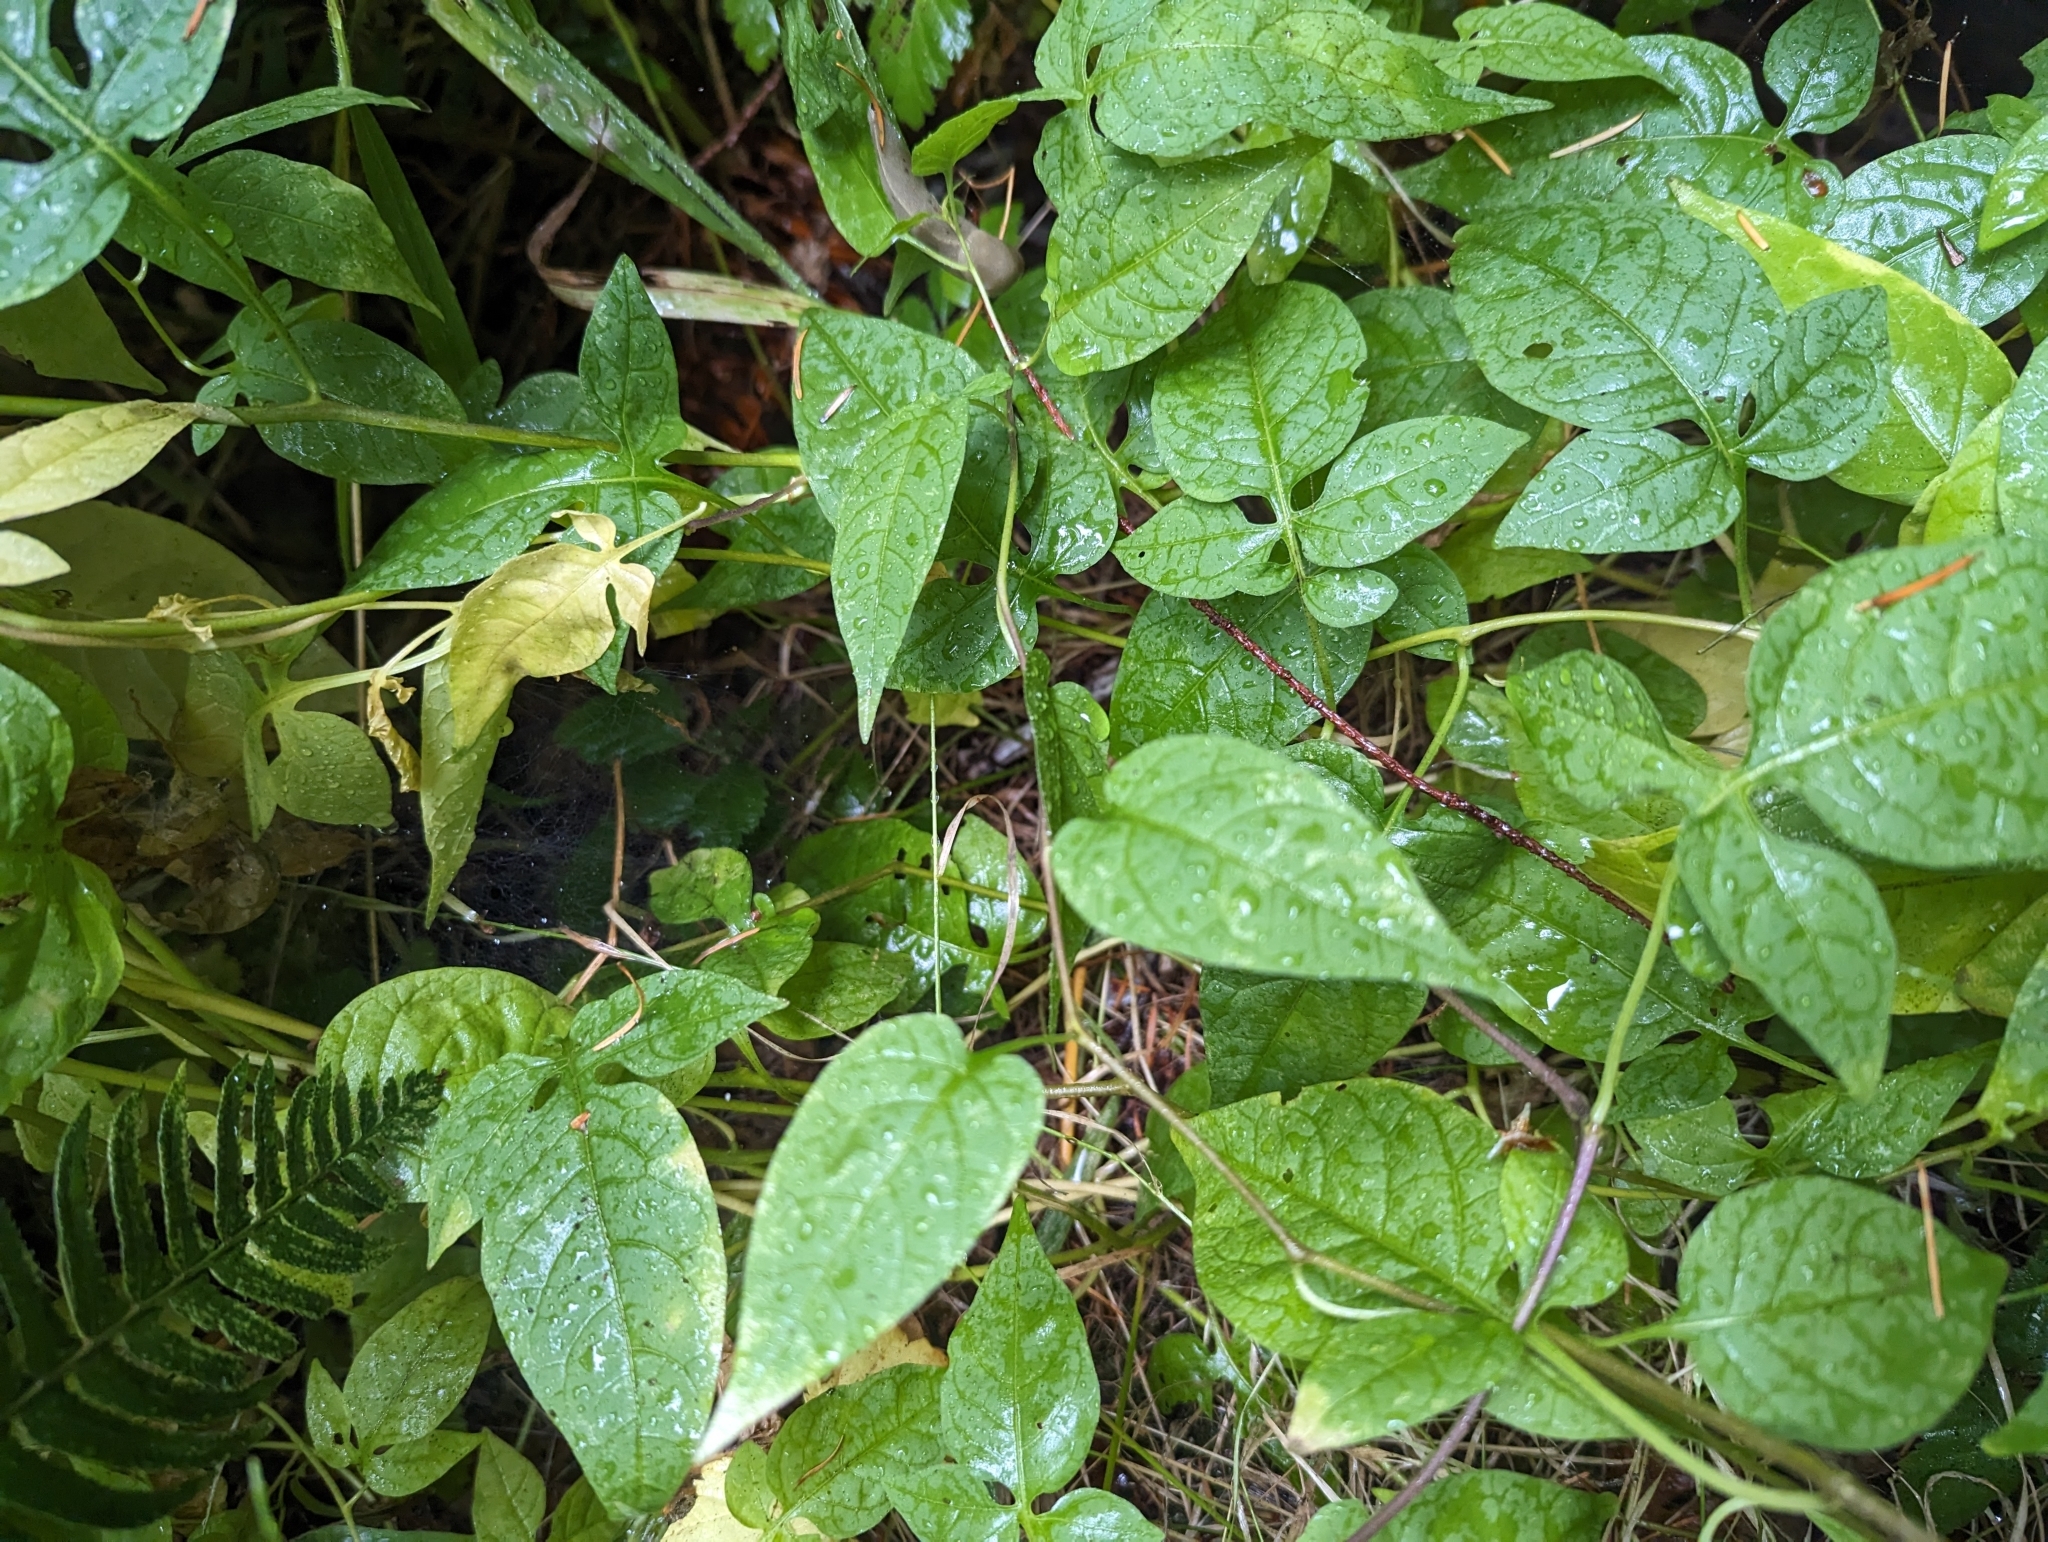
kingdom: Plantae
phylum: Tracheophyta
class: Magnoliopsida
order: Solanales
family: Solanaceae
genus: Solanum
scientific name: Solanum dulcamara
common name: Climbing nightshade
